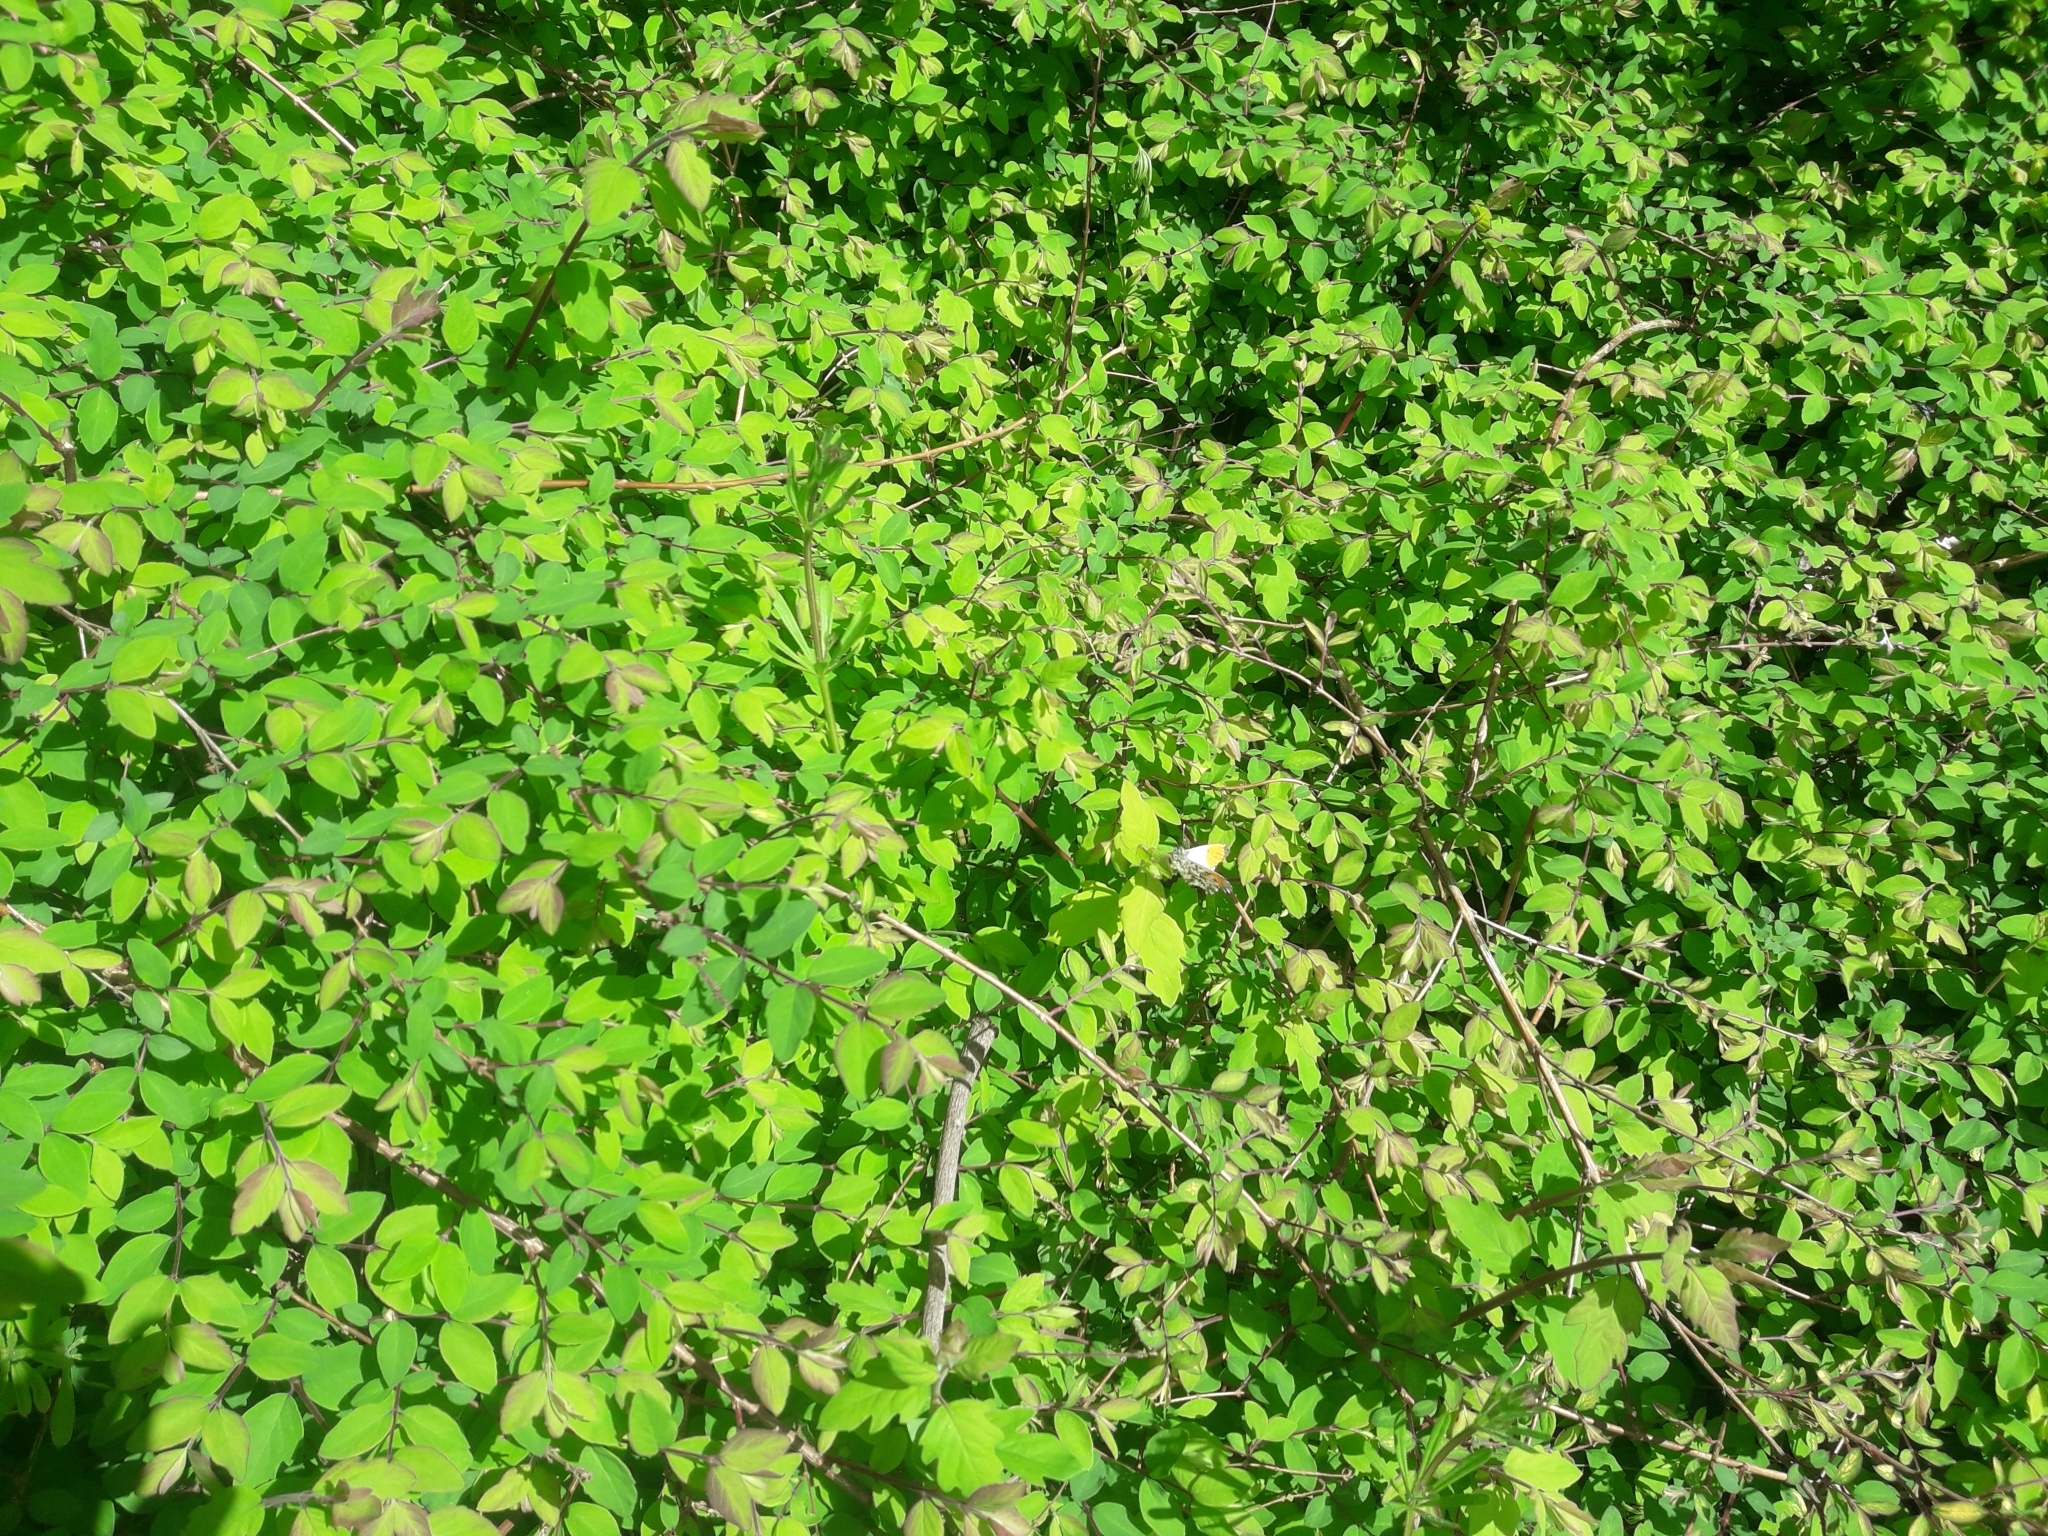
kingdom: Animalia
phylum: Arthropoda
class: Insecta
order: Lepidoptera
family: Pieridae
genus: Anthocharis
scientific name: Anthocharis cardamines
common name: Orange-tip
